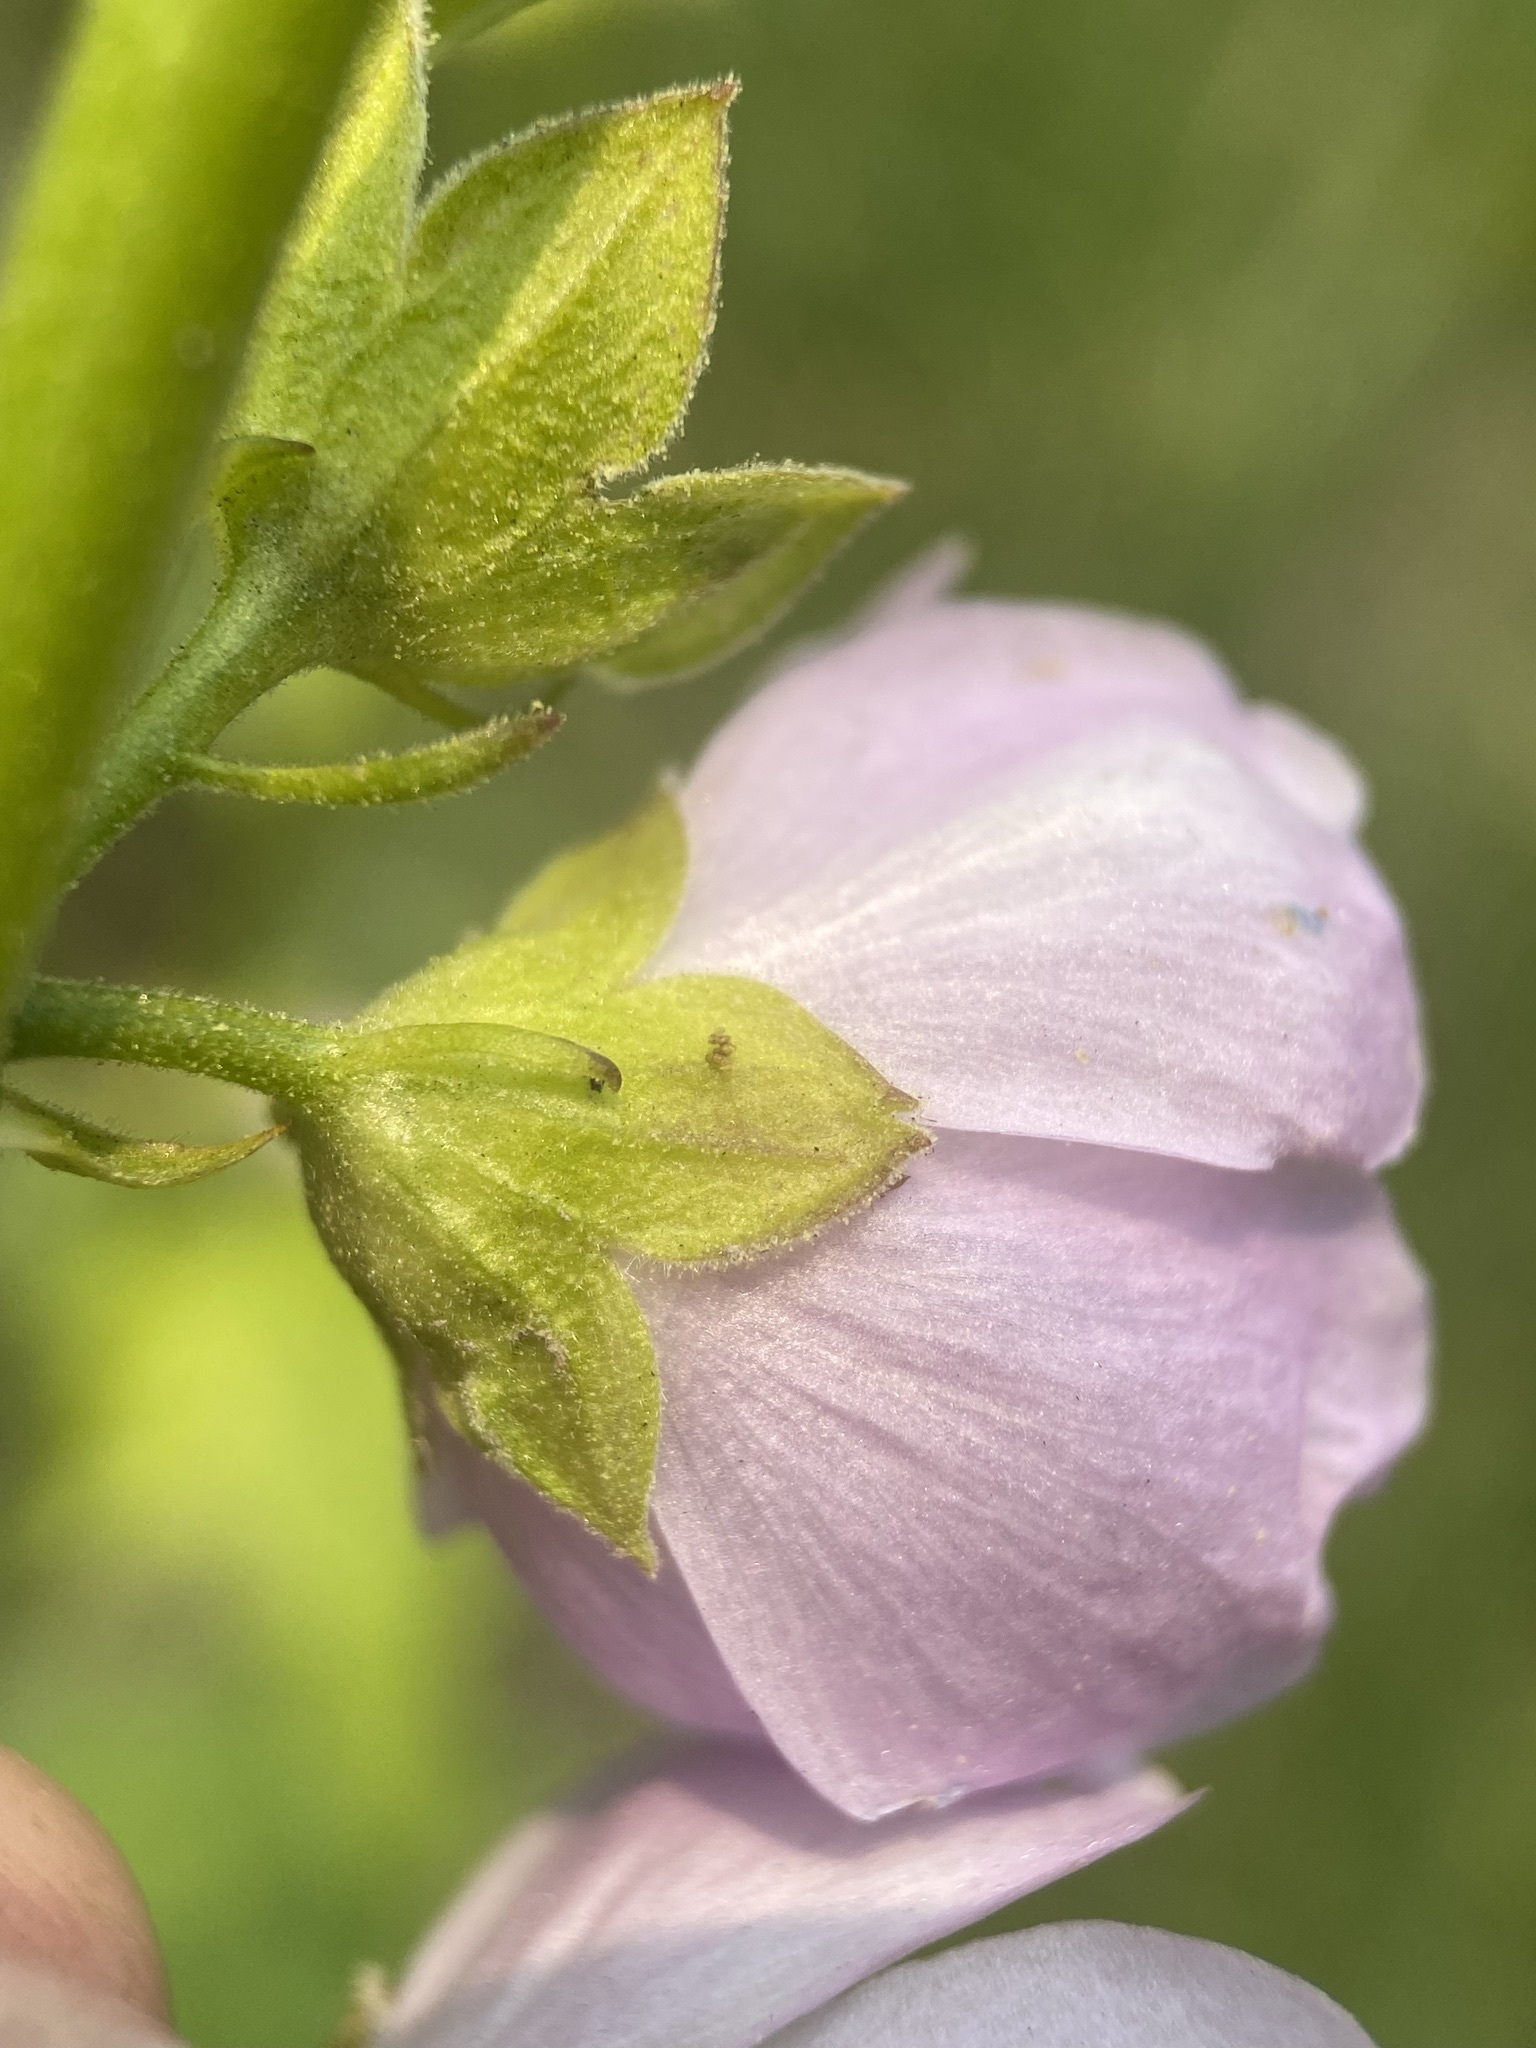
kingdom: Plantae
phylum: Tracheophyta
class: Magnoliopsida
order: Malvales
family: Malvaceae
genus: Iliamna
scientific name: Iliamna rivularis
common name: Wild hollyhock
